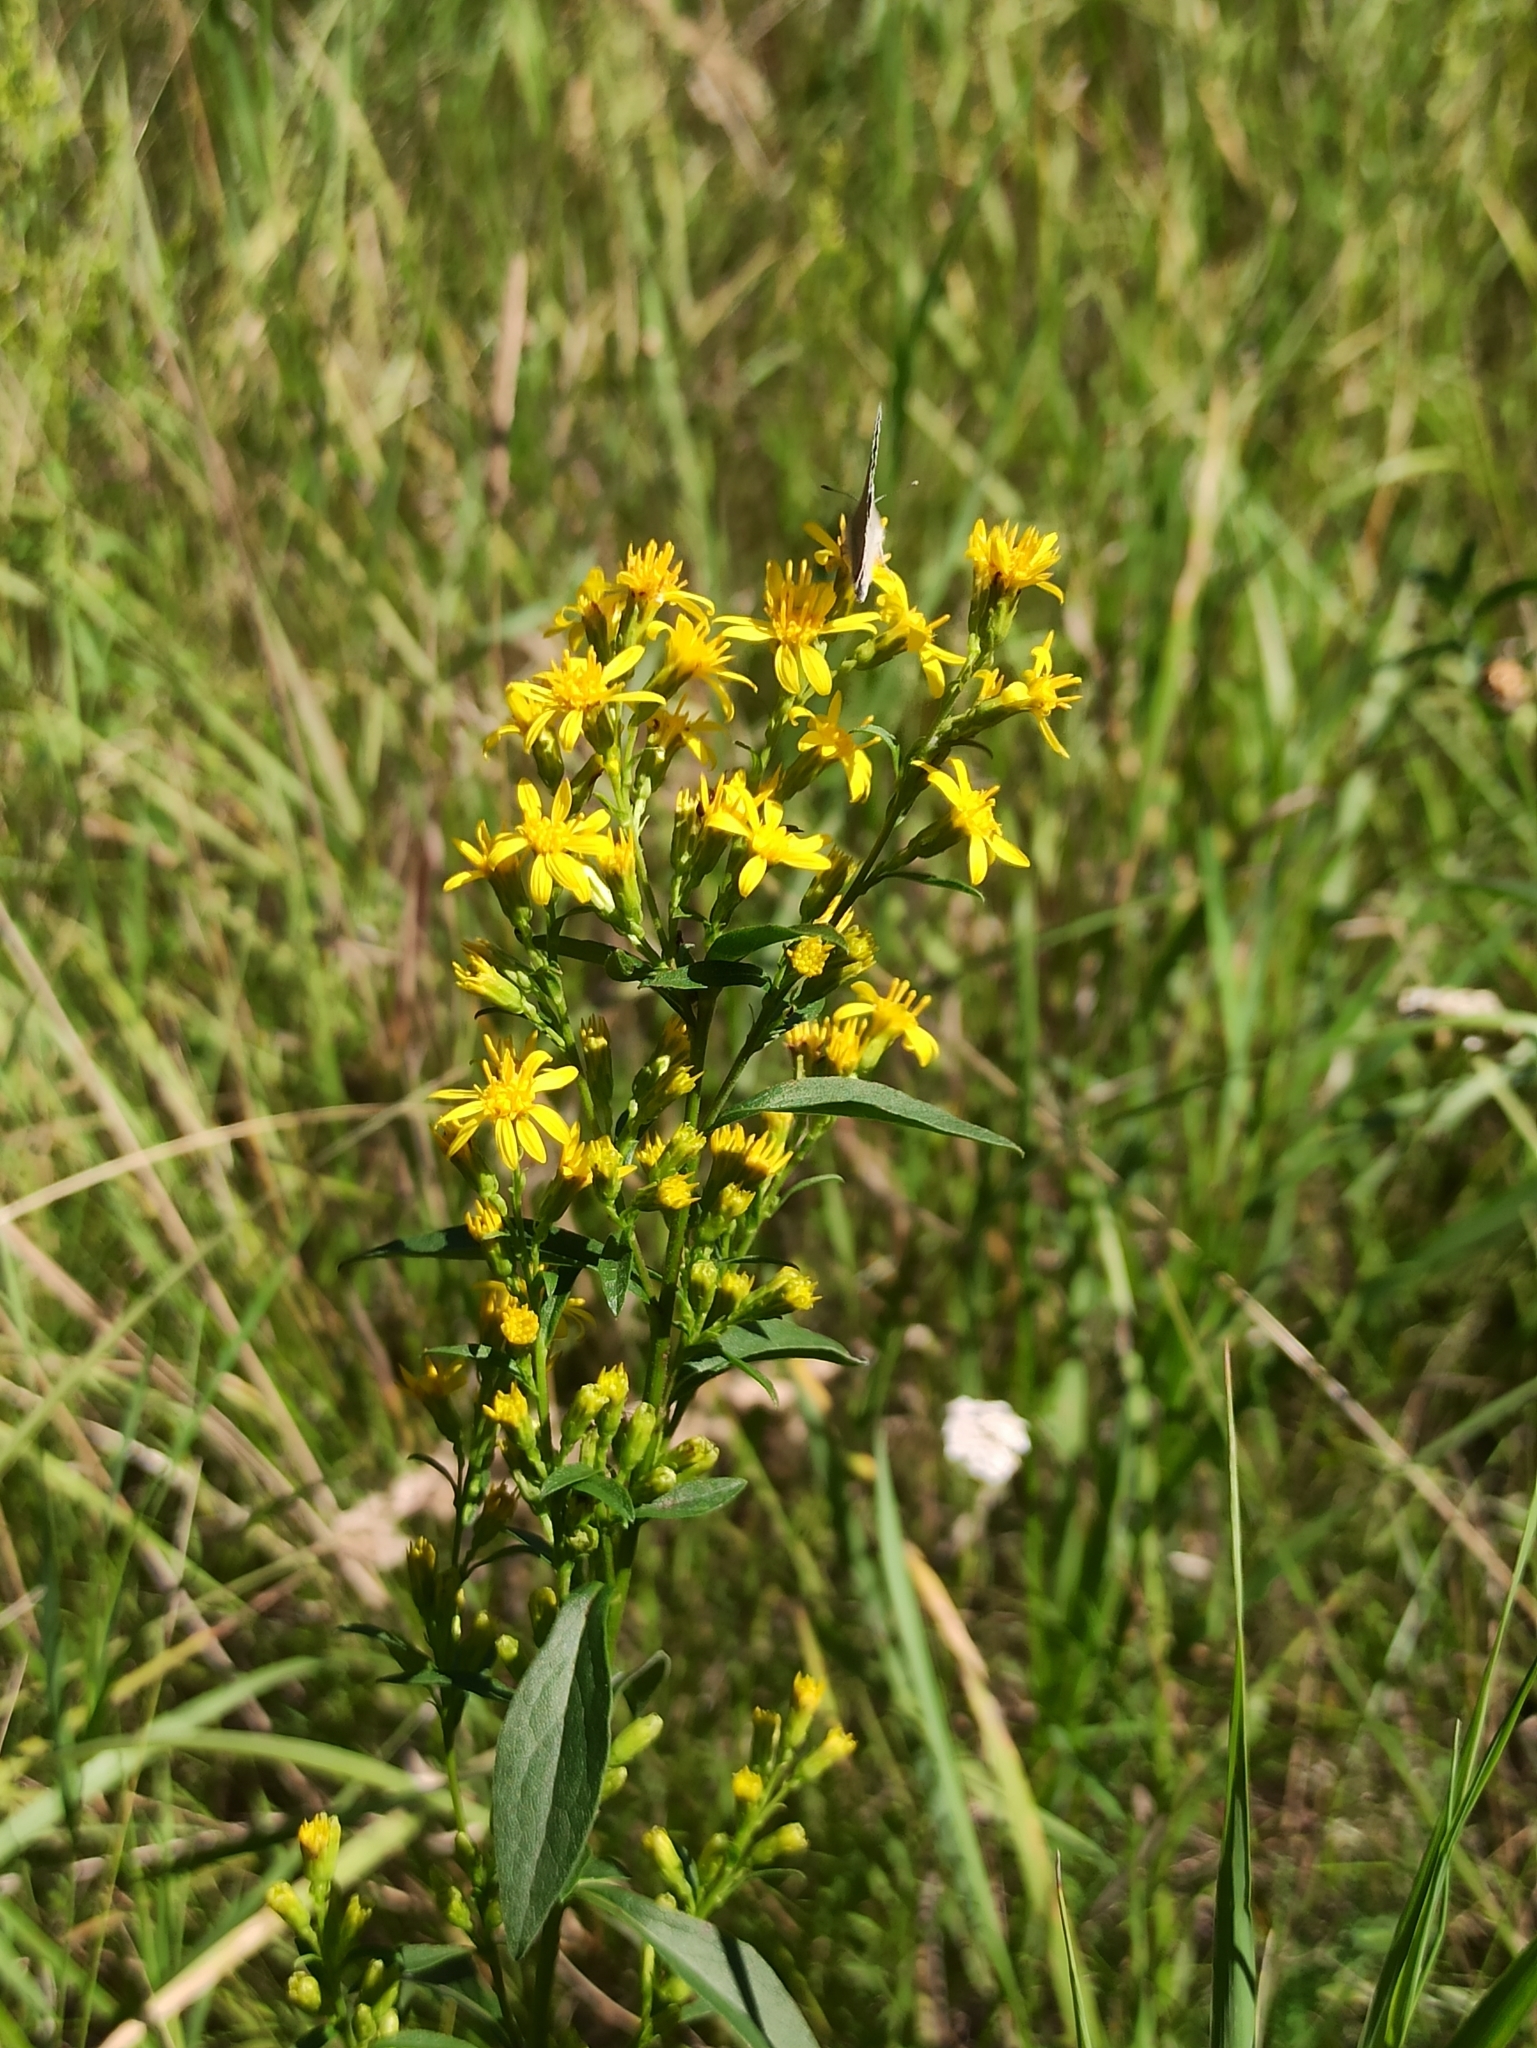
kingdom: Plantae
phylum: Tracheophyta
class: Magnoliopsida
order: Asterales
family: Asteraceae
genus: Solidago
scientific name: Solidago virgaurea
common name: Goldenrod
